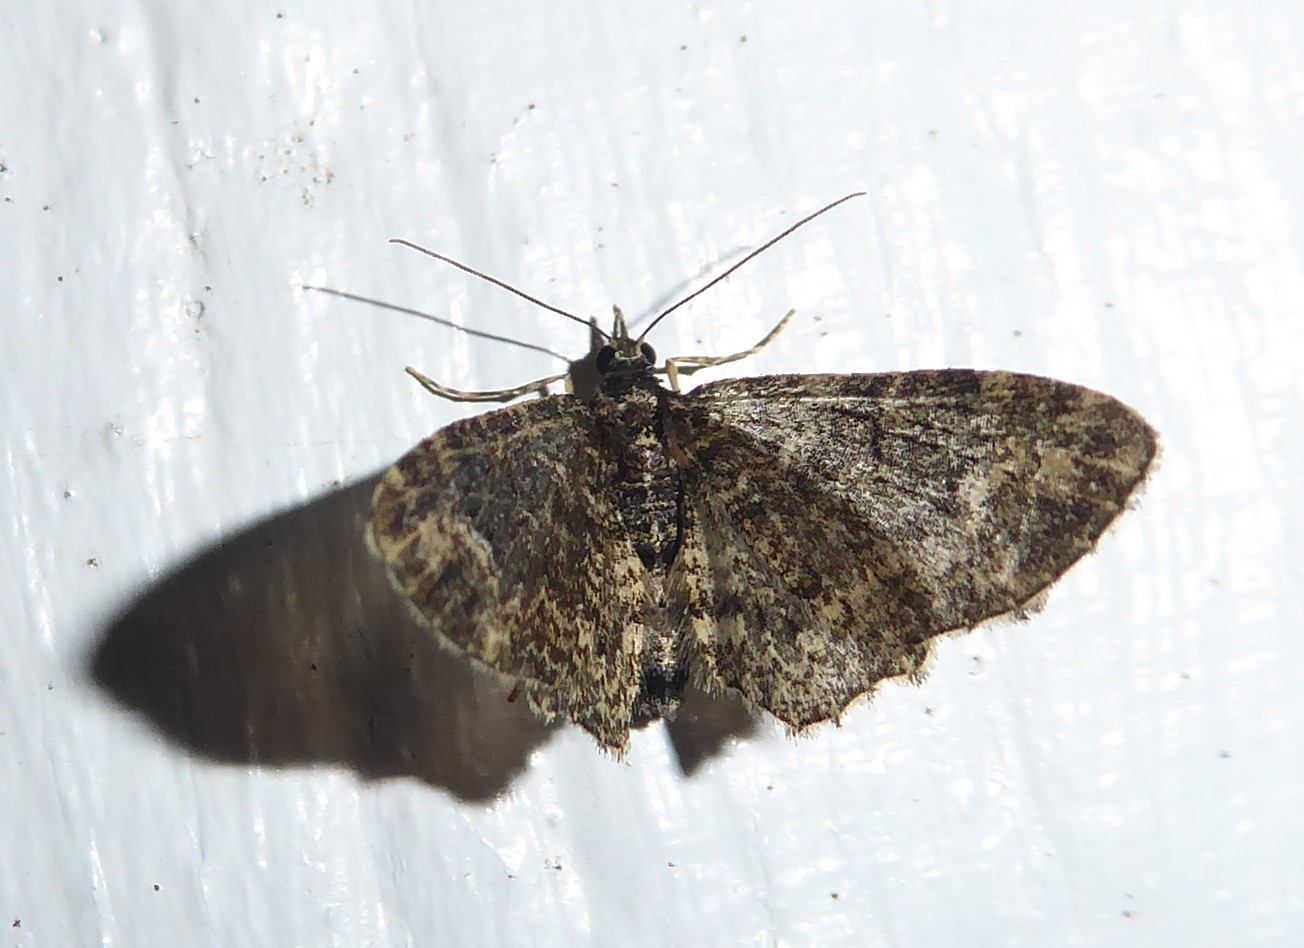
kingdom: Animalia
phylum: Arthropoda
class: Insecta
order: Lepidoptera
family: Geometridae
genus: Pasiphilodes
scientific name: Pasiphilodes testulata
